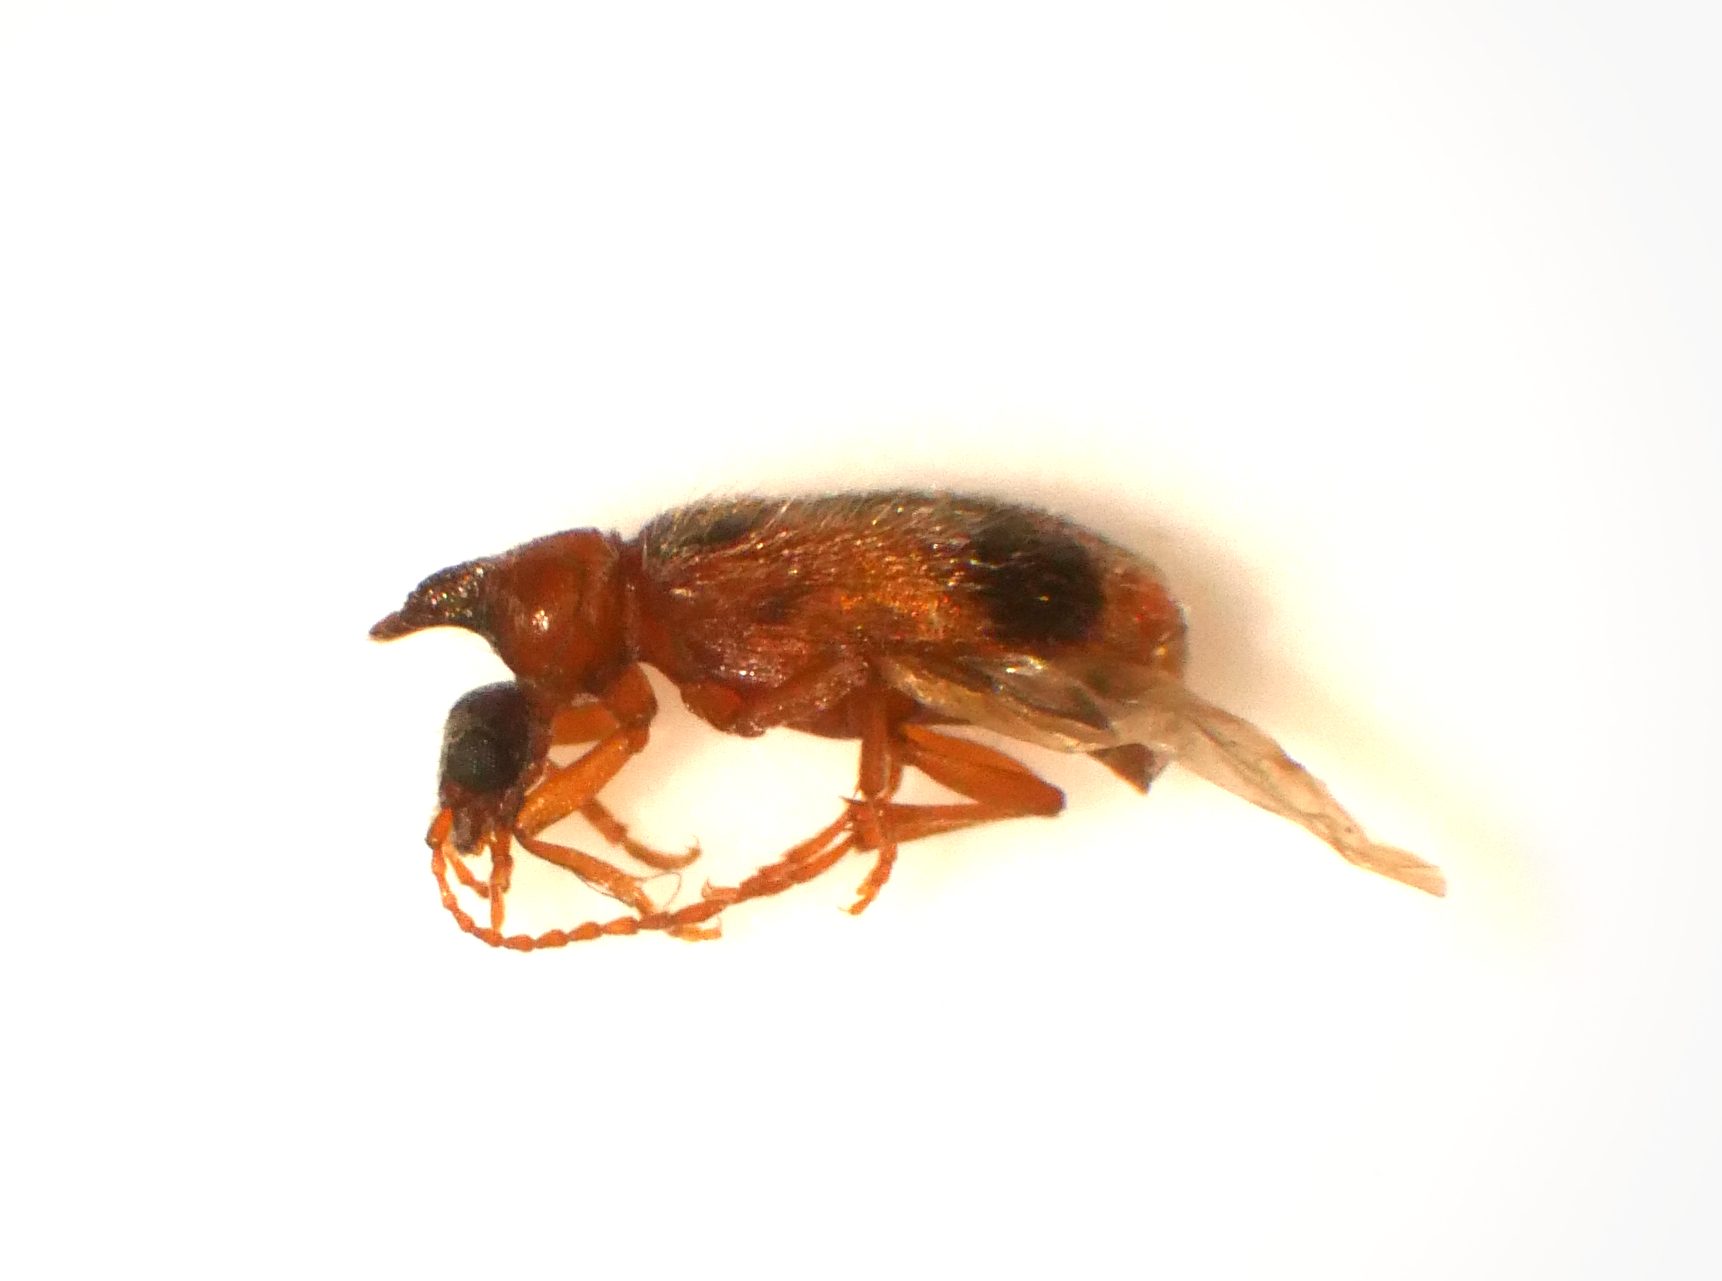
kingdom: Animalia
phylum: Arthropoda
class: Insecta
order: Coleoptera
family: Anthicidae
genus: Notoxus
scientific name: Notoxus monoceros
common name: Monoceros beetle
